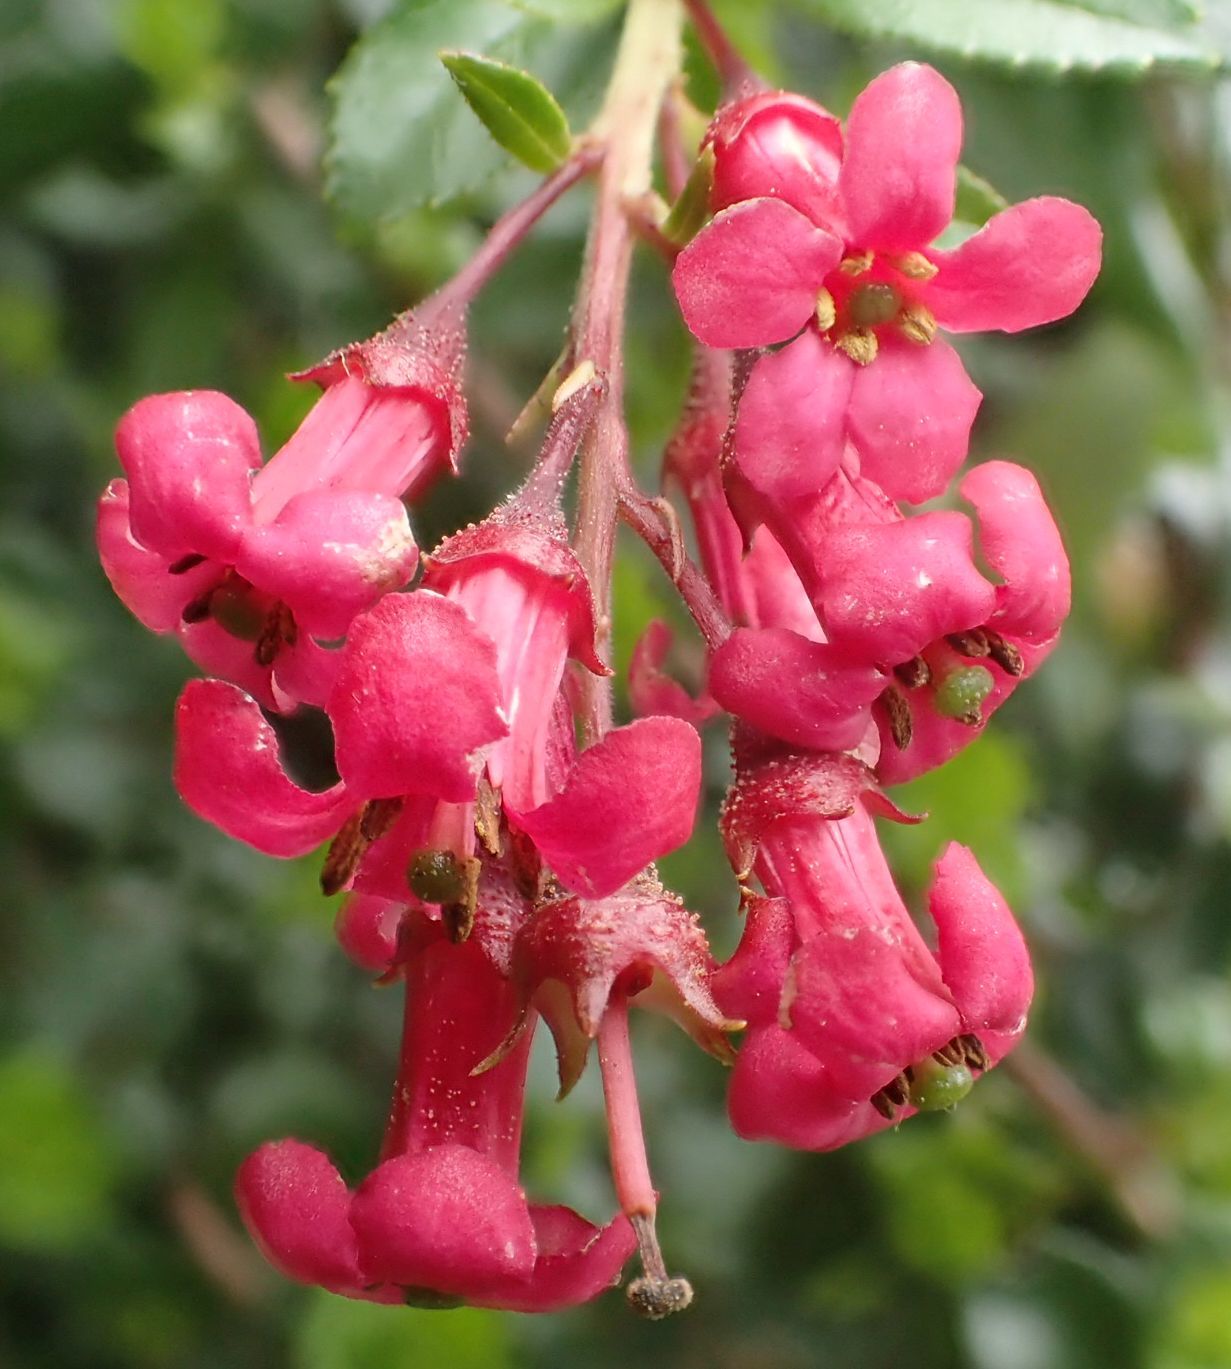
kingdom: Plantae
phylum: Tracheophyta
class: Magnoliopsida
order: Escalloniales
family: Escalloniaceae
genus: Escallonia
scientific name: Escallonia rubra
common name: Redclaws
